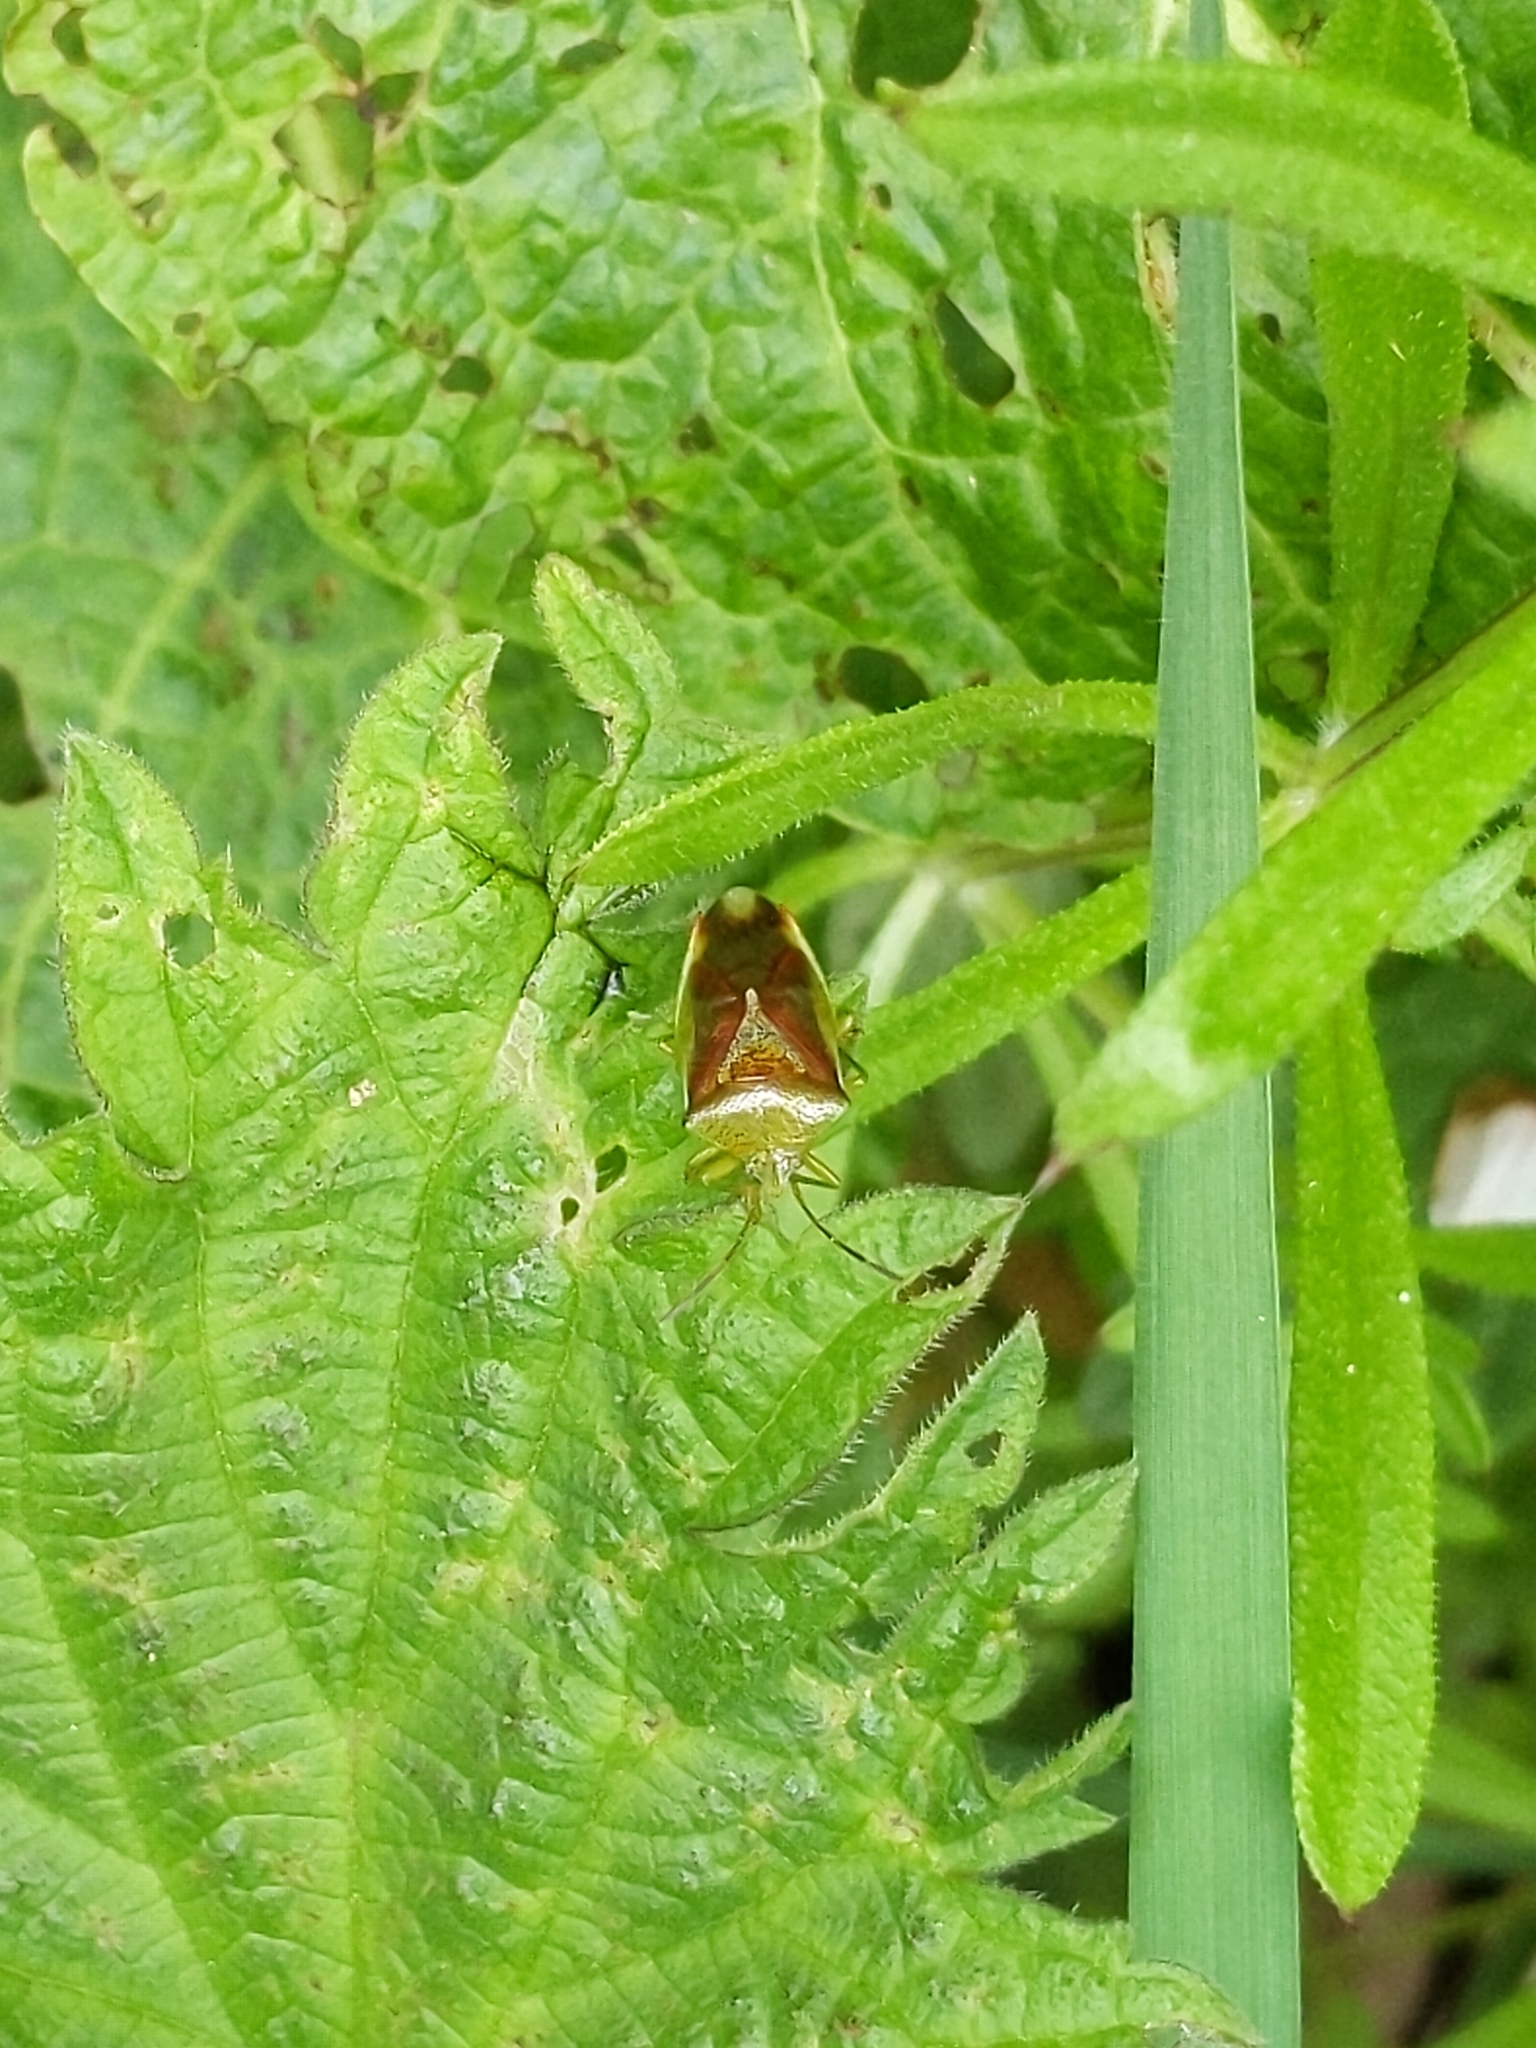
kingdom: Animalia
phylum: Arthropoda
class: Insecta
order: Hemiptera
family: Acanthosomatidae
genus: Elasmostethus
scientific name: Elasmostethus interstinctus
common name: Birch shieldbug
